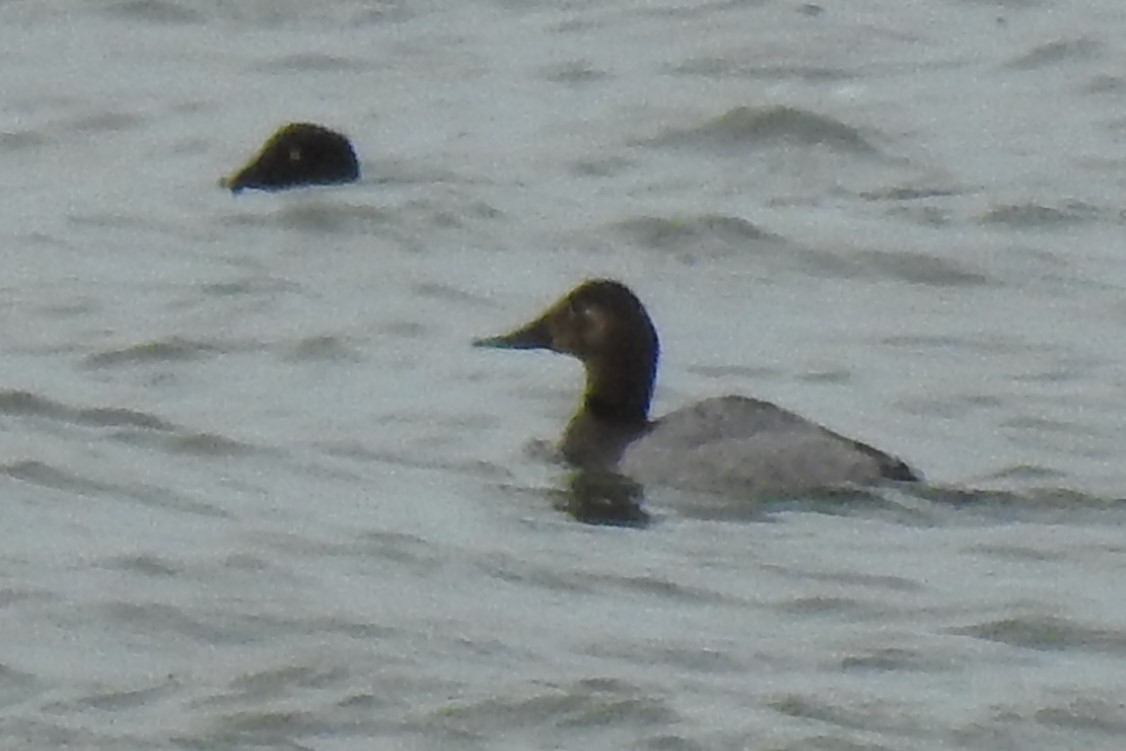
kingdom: Animalia
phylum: Chordata
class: Aves
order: Anseriformes
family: Anatidae
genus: Aythya
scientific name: Aythya valisineria
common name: Canvasback
